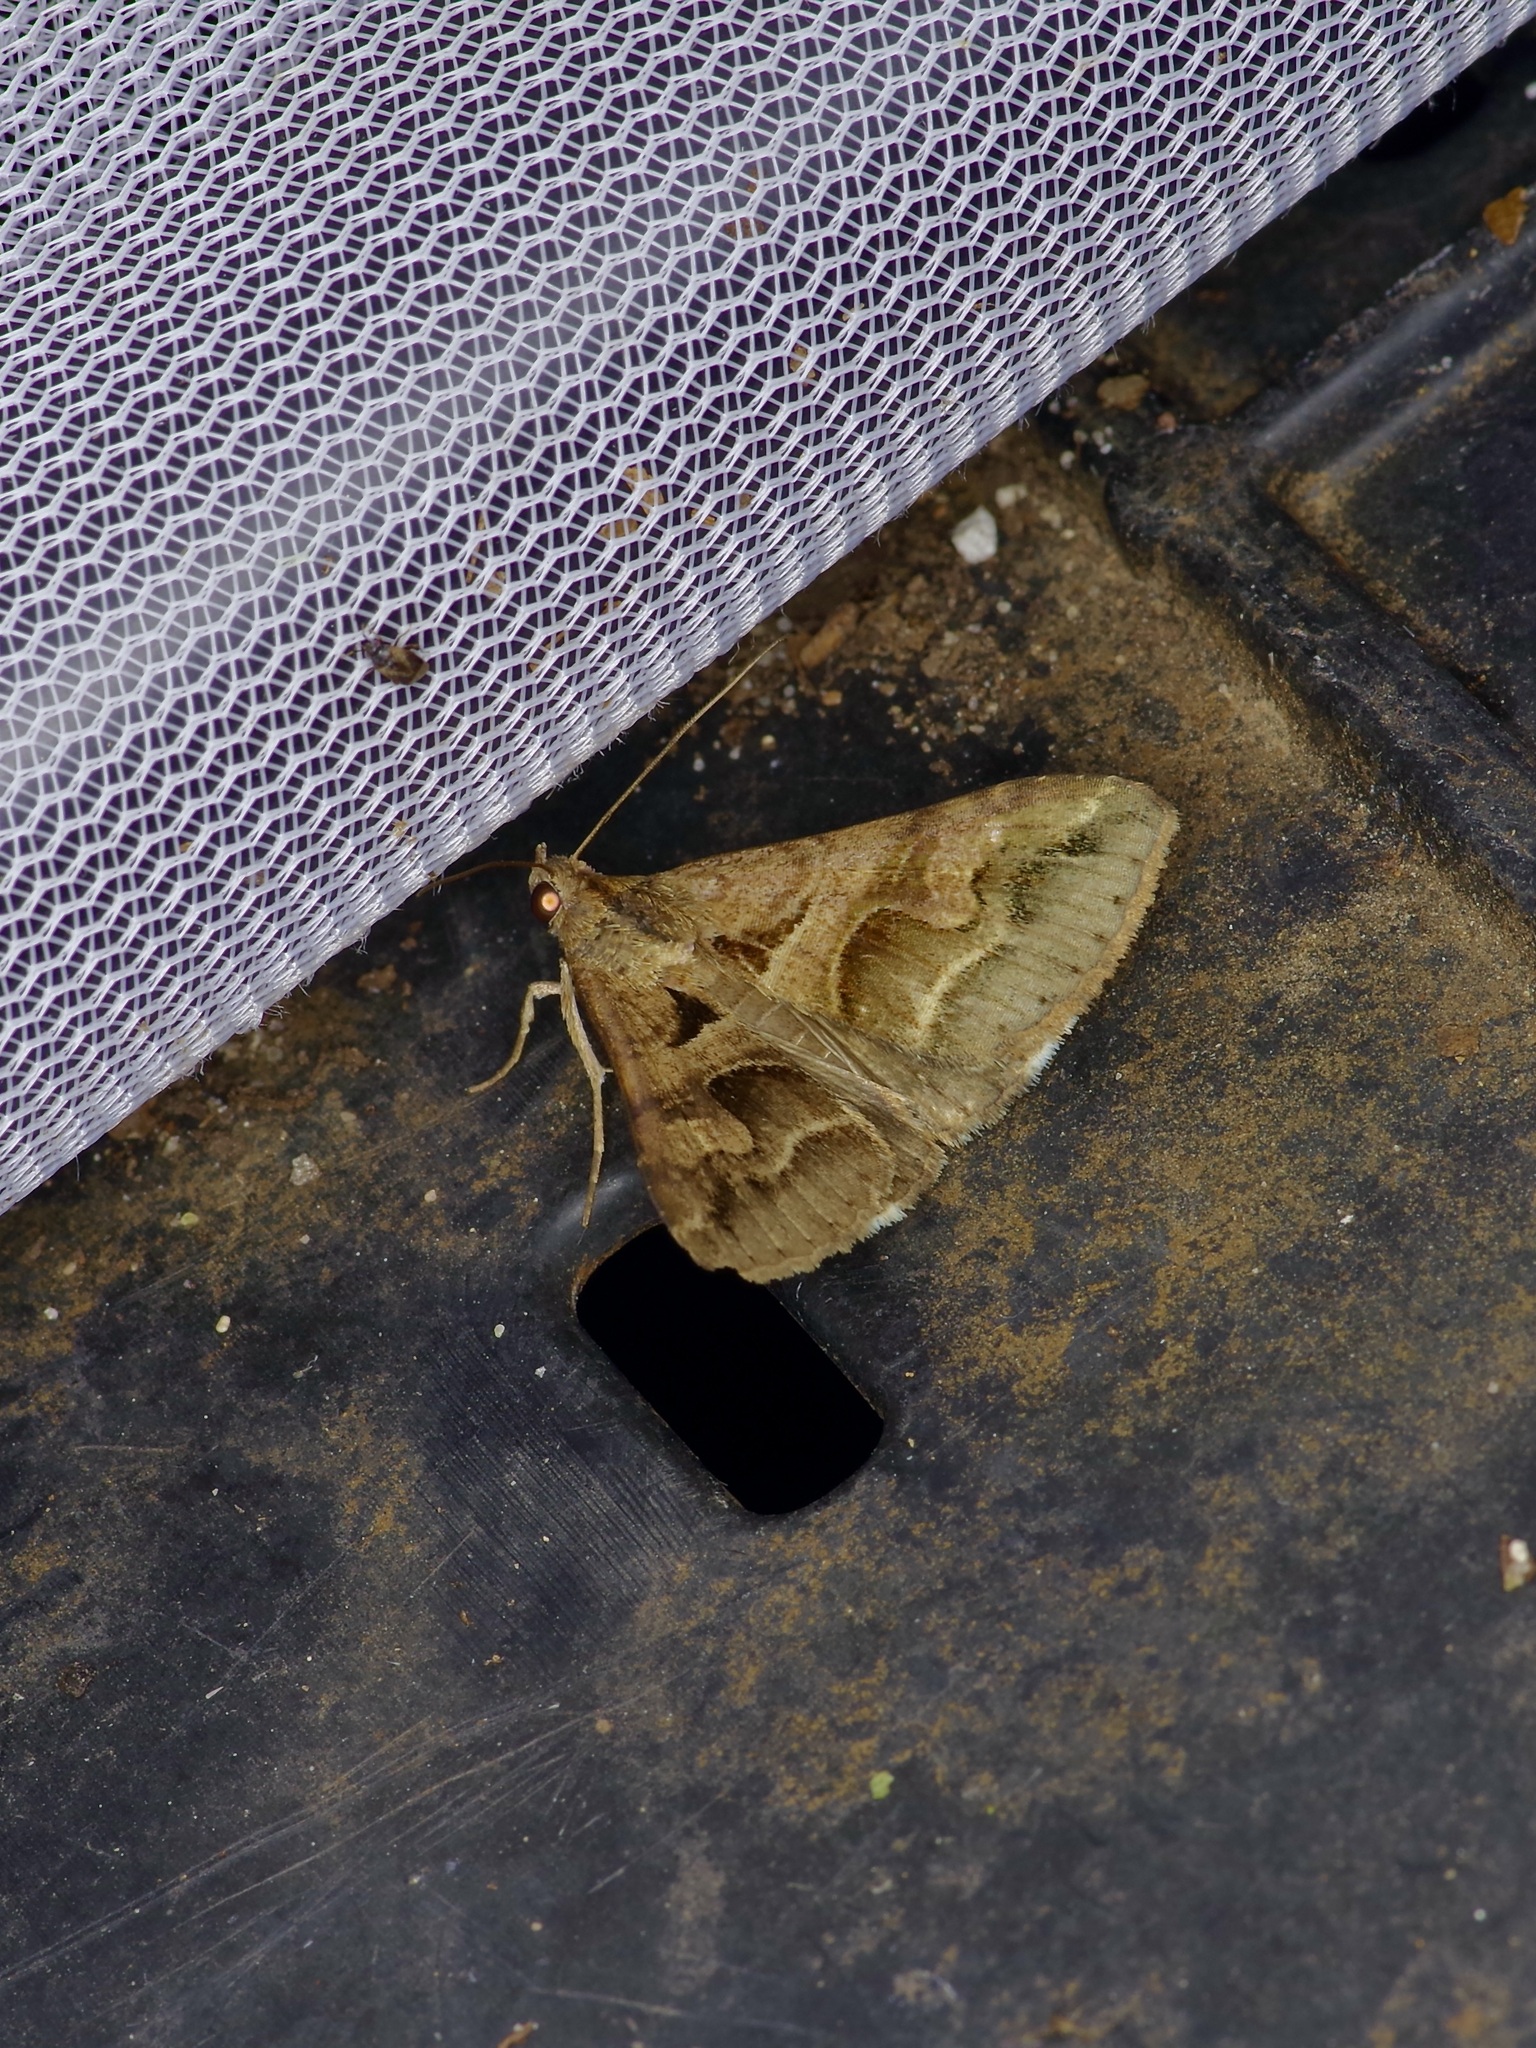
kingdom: Animalia
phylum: Arthropoda
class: Insecta
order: Lepidoptera
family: Erebidae
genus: Melipotis
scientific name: Melipotis cellaris
